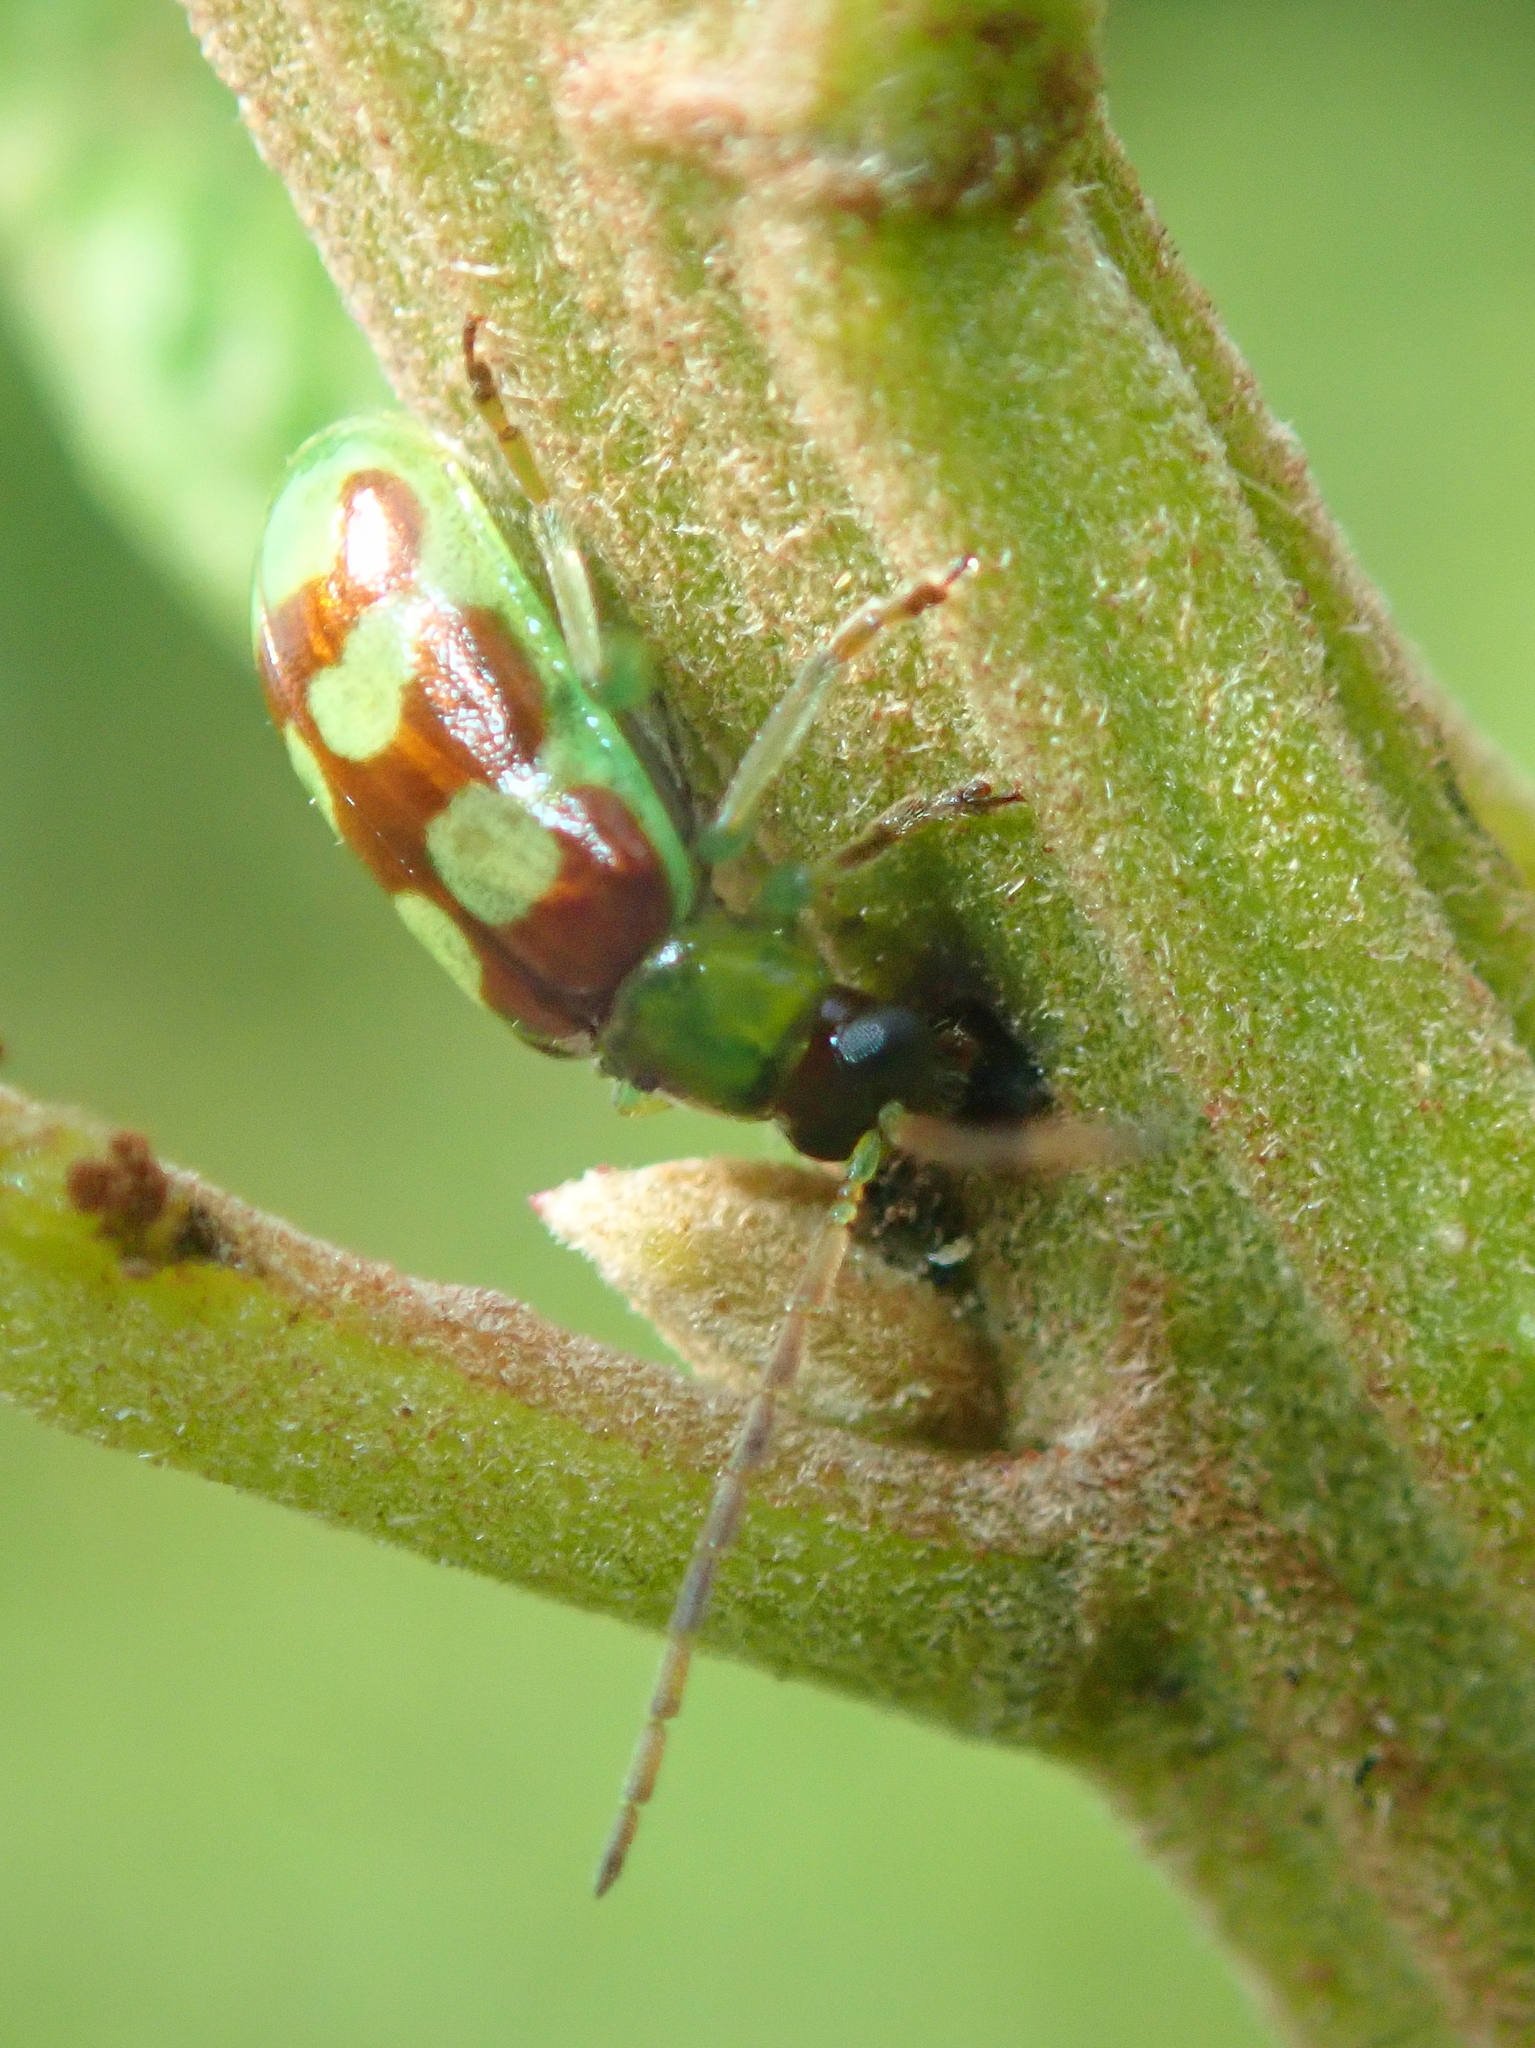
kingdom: Animalia
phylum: Arthropoda
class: Insecta
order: Coleoptera
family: Chrysomelidae
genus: Basiprionota
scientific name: Basiprionota sinuata
